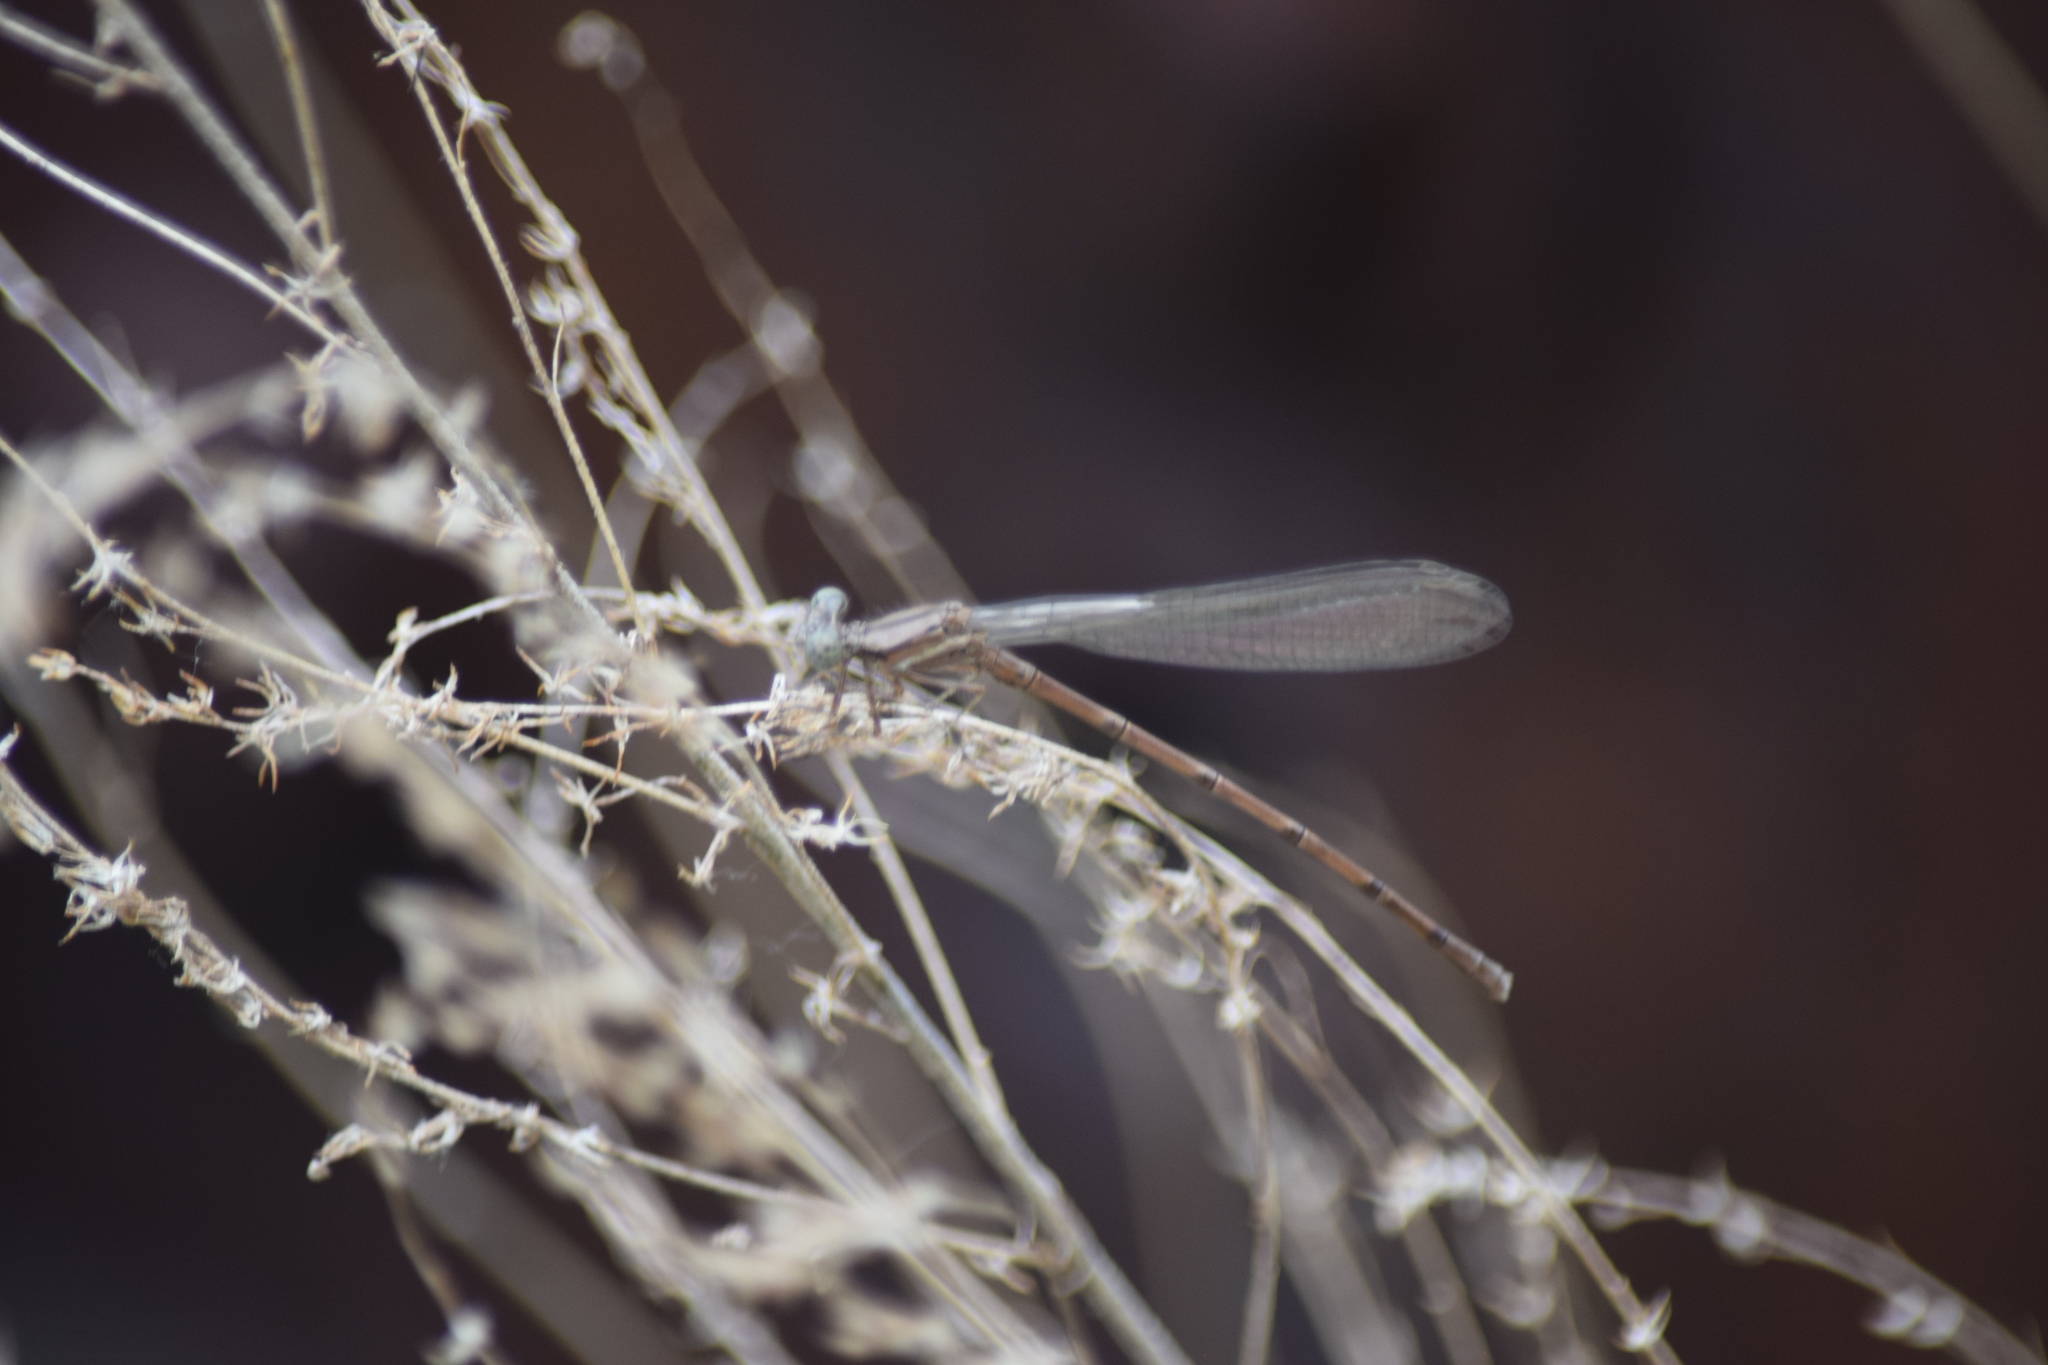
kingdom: Animalia
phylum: Arthropoda
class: Insecta
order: Odonata
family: Coenagrionidae
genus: Argia
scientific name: Argia fumipennis
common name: Variable dancer
